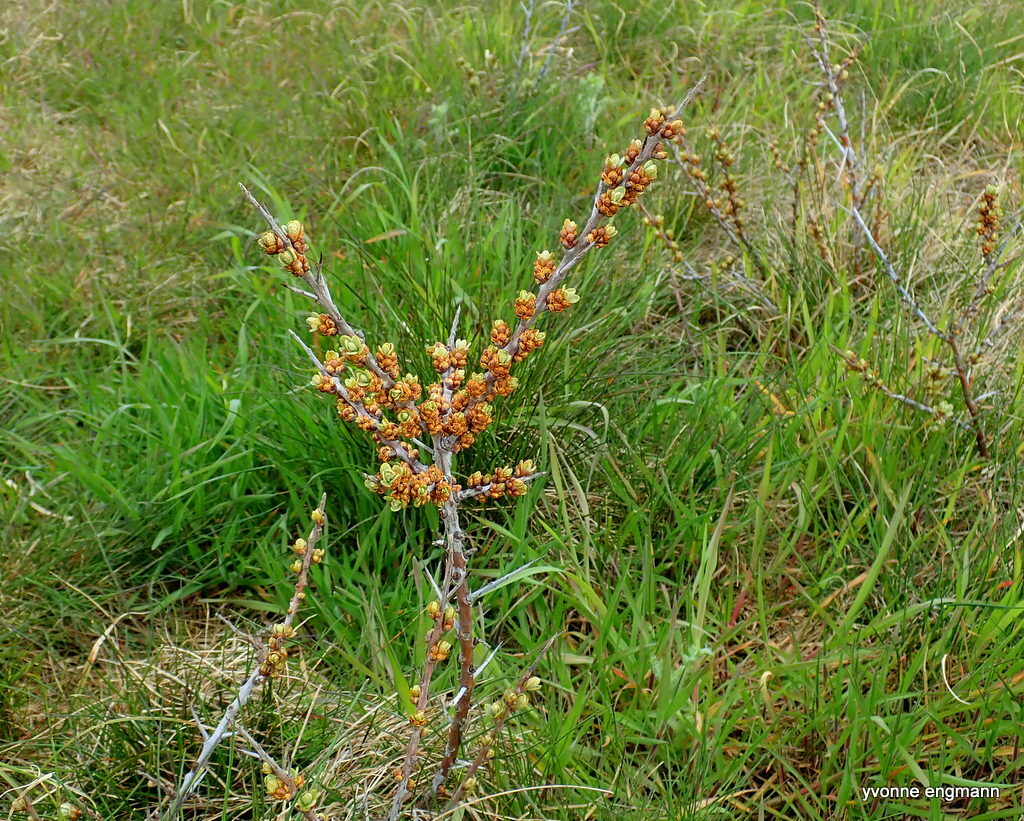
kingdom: Plantae
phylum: Tracheophyta
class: Magnoliopsida
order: Rosales
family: Elaeagnaceae
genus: Hippophae
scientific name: Hippophae rhamnoides
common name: Sea-buckthorn
